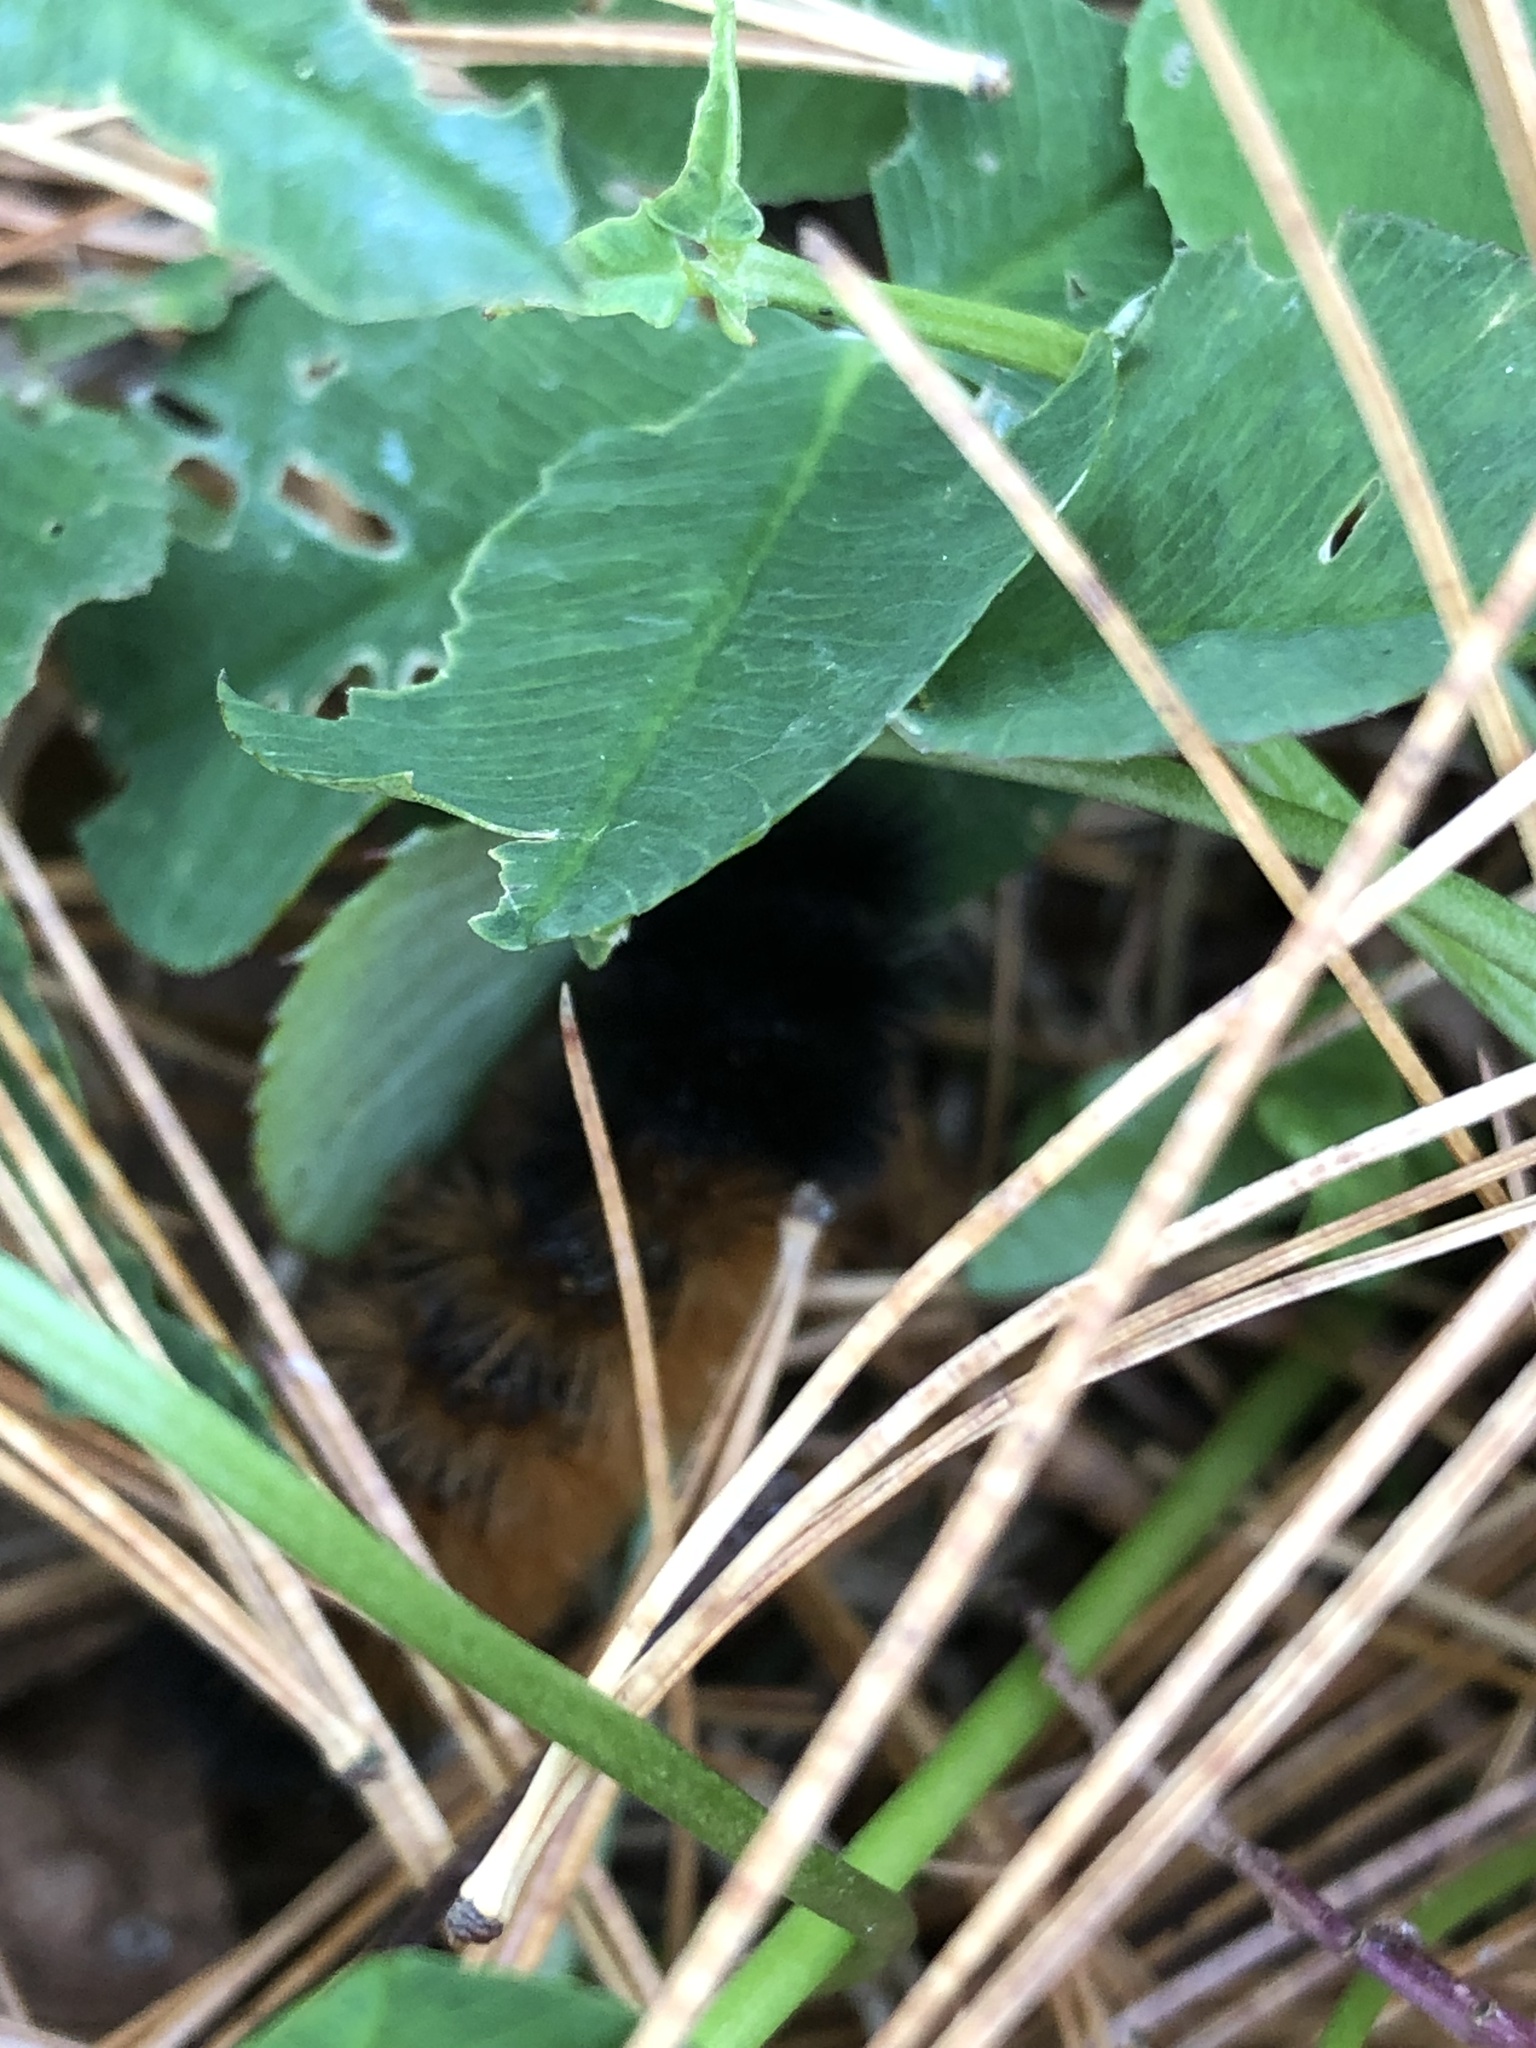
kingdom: Animalia
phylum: Arthropoda
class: Insecta
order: Lepidoptera
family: Erebidae
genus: Pyrrharctia
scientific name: Pyrrharctia isabella
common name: Isabella tiger moth
